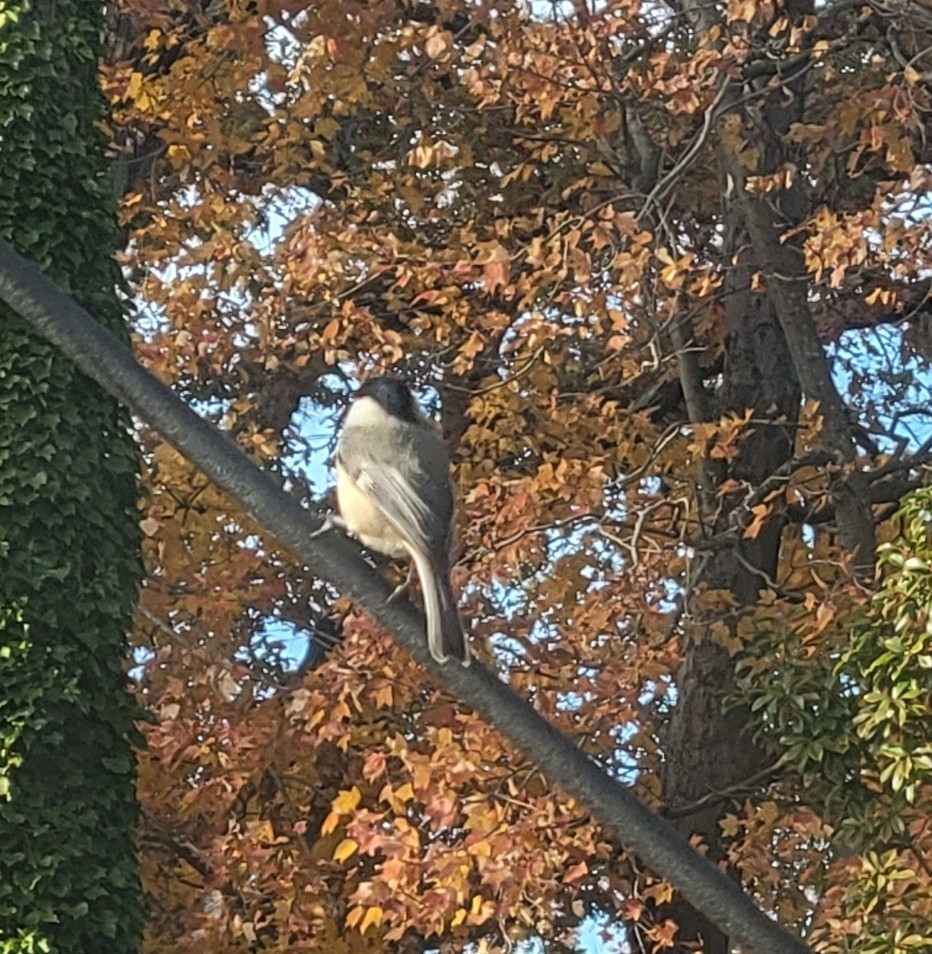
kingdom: Animalia
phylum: Chordata
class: Aves
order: Passeriformes
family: Paridae
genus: Poecile
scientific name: Poecile carolinensis
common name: Carolina chickadee
